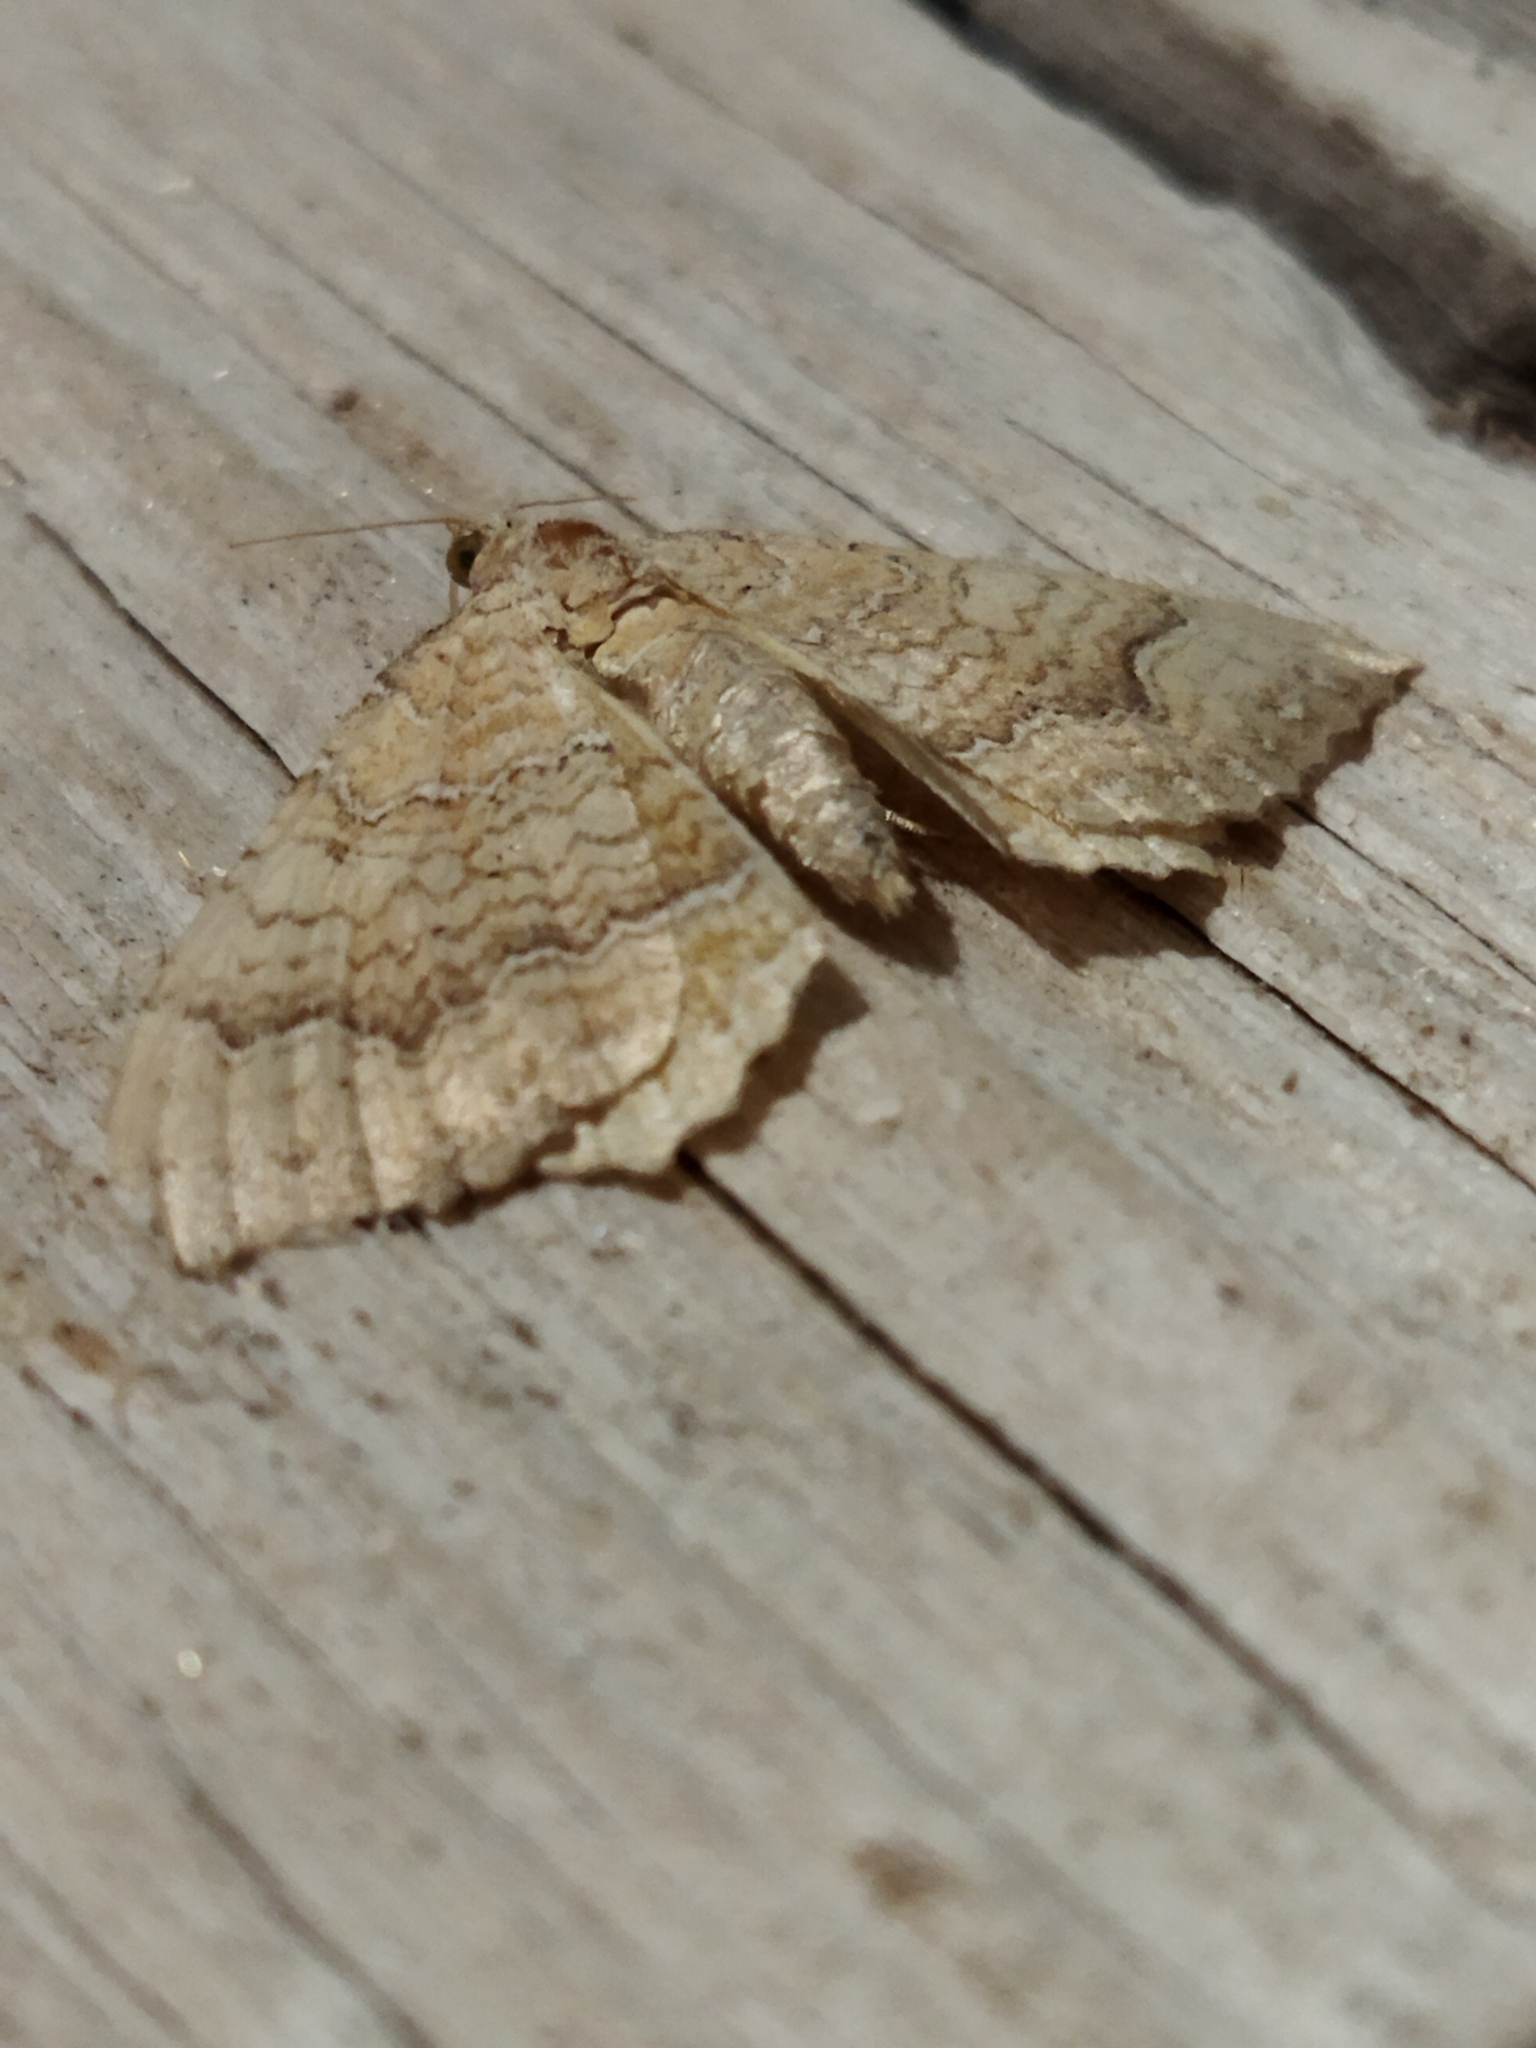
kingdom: Animalia
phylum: Arthropoda
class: Insecta
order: Lepidoptera
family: Geometridae
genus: Camptogramma
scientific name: Camptogramma bilineata
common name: Yellow shell
